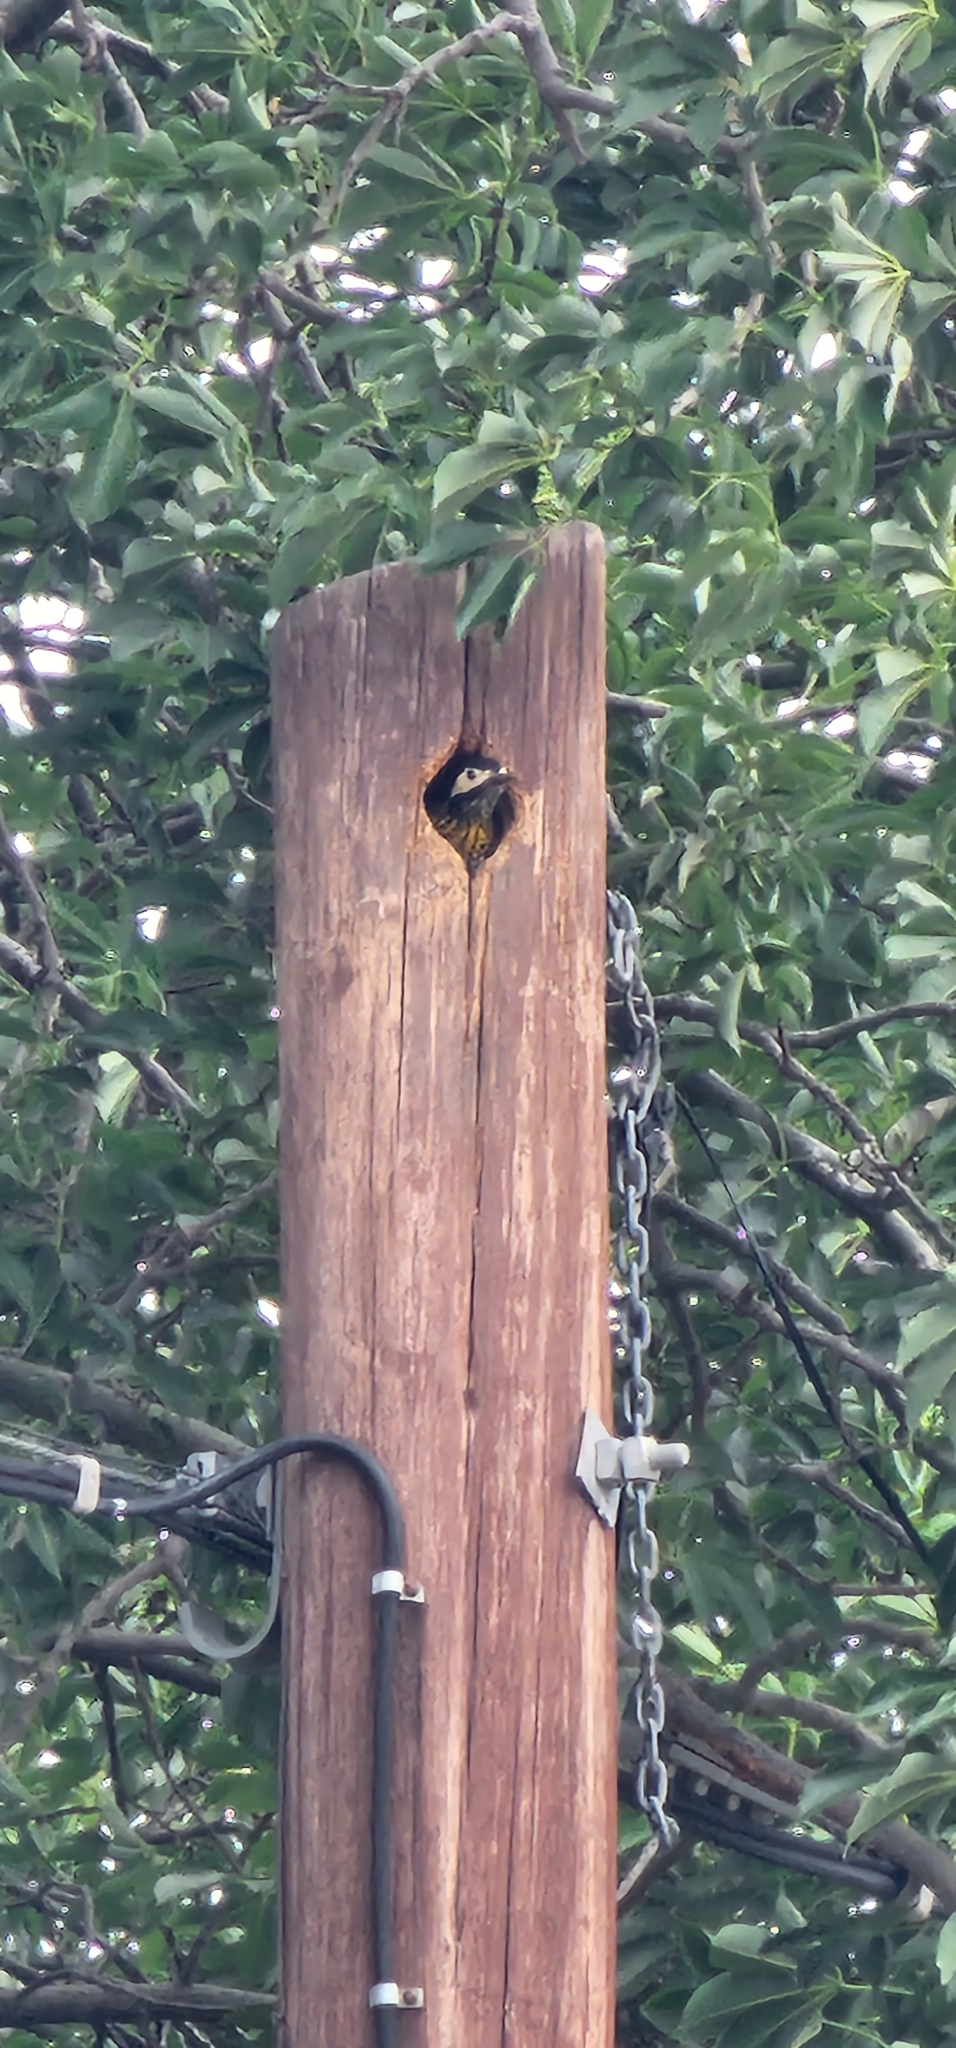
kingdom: Animalia
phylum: Chordata
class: Aves
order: Piciformes
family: Picidae
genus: Colaptes
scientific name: Colaptes melanochloros
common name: Green-barred woodpecker
